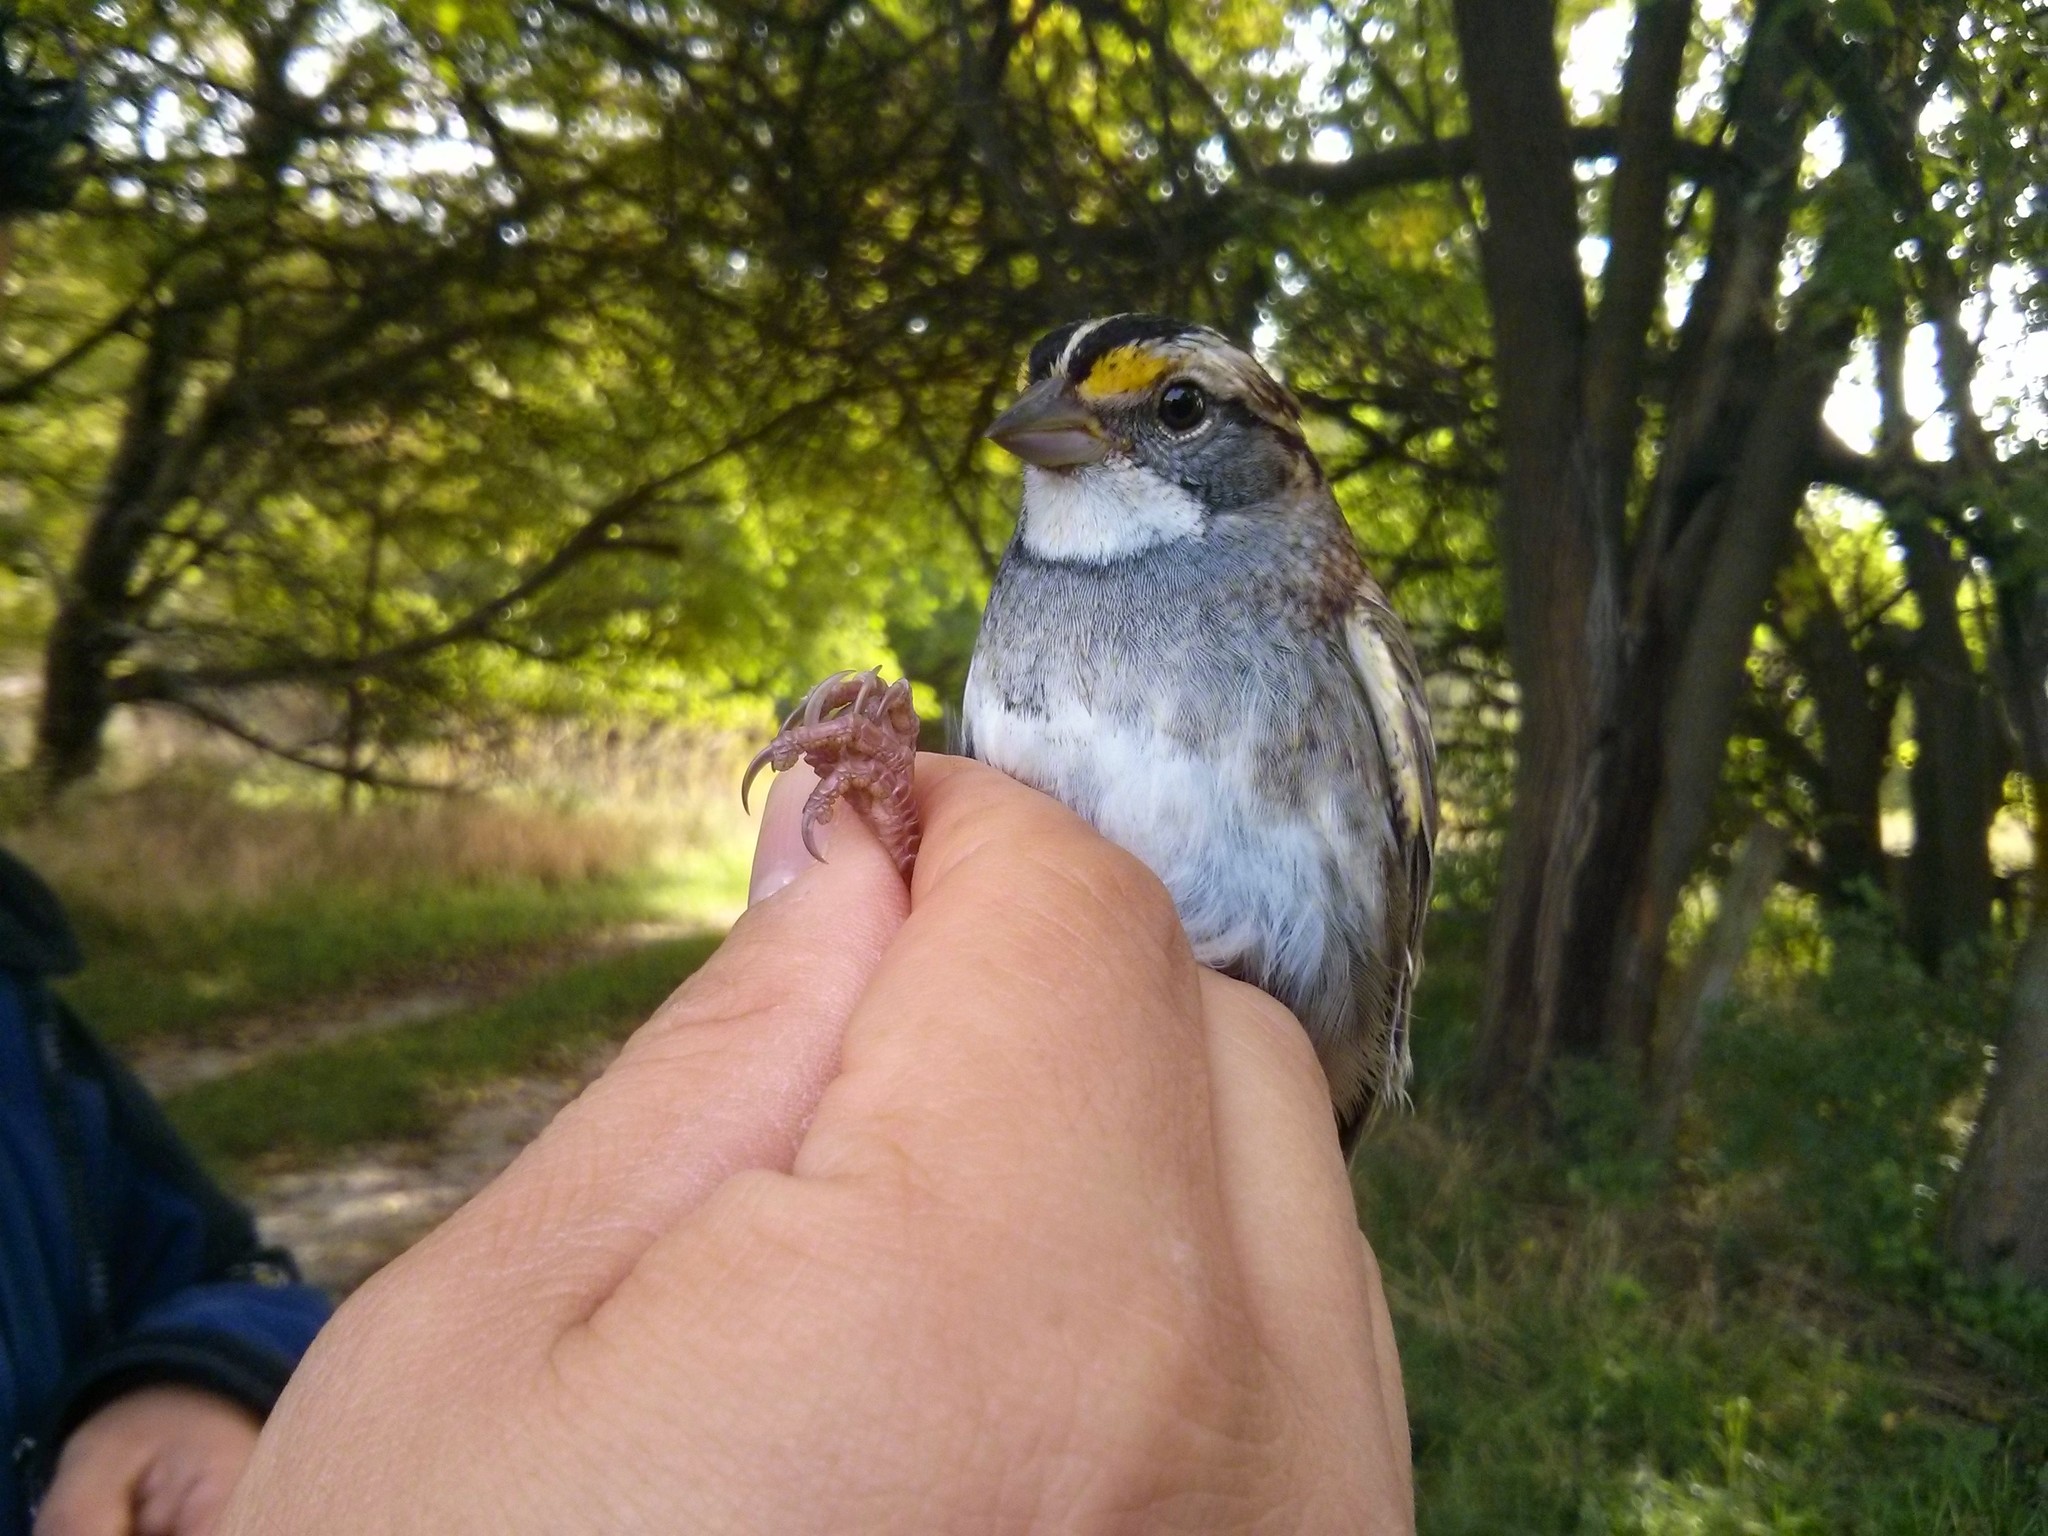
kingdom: Animalia
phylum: Chordata
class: Aves
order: Passeriformes
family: Passerellidae
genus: Zonotrichia
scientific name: Zonotrichia albicollis
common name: White-throated sparrow
